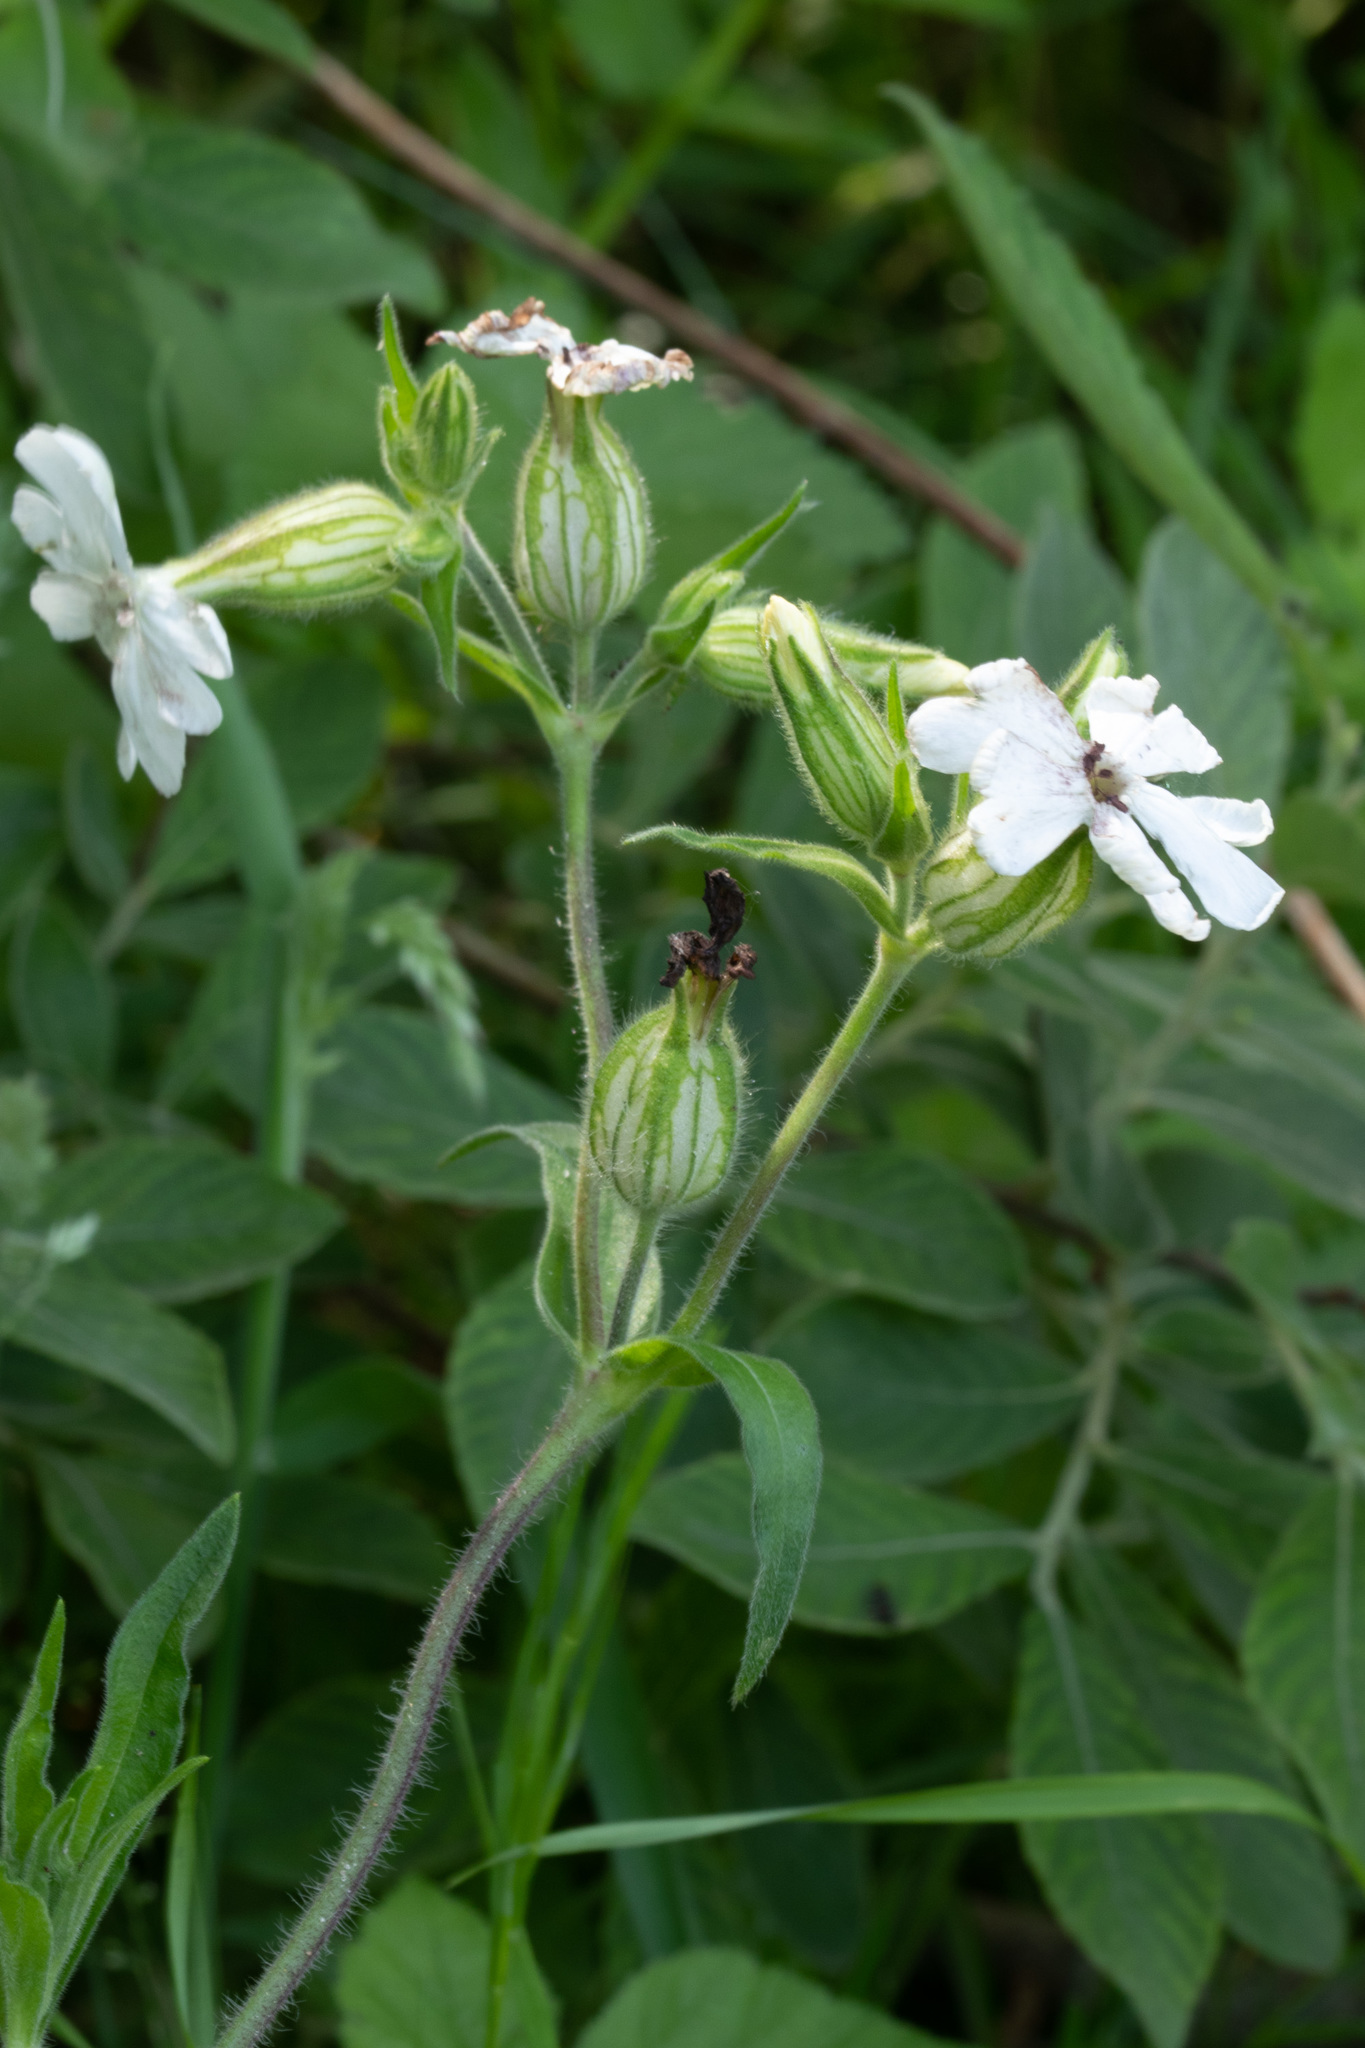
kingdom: Plantae
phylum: Tracheophyta
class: Magnoliopsida
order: Caryophyllales
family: Caryophyllaceae
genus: Silene
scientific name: Silene latifolia
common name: White campion
